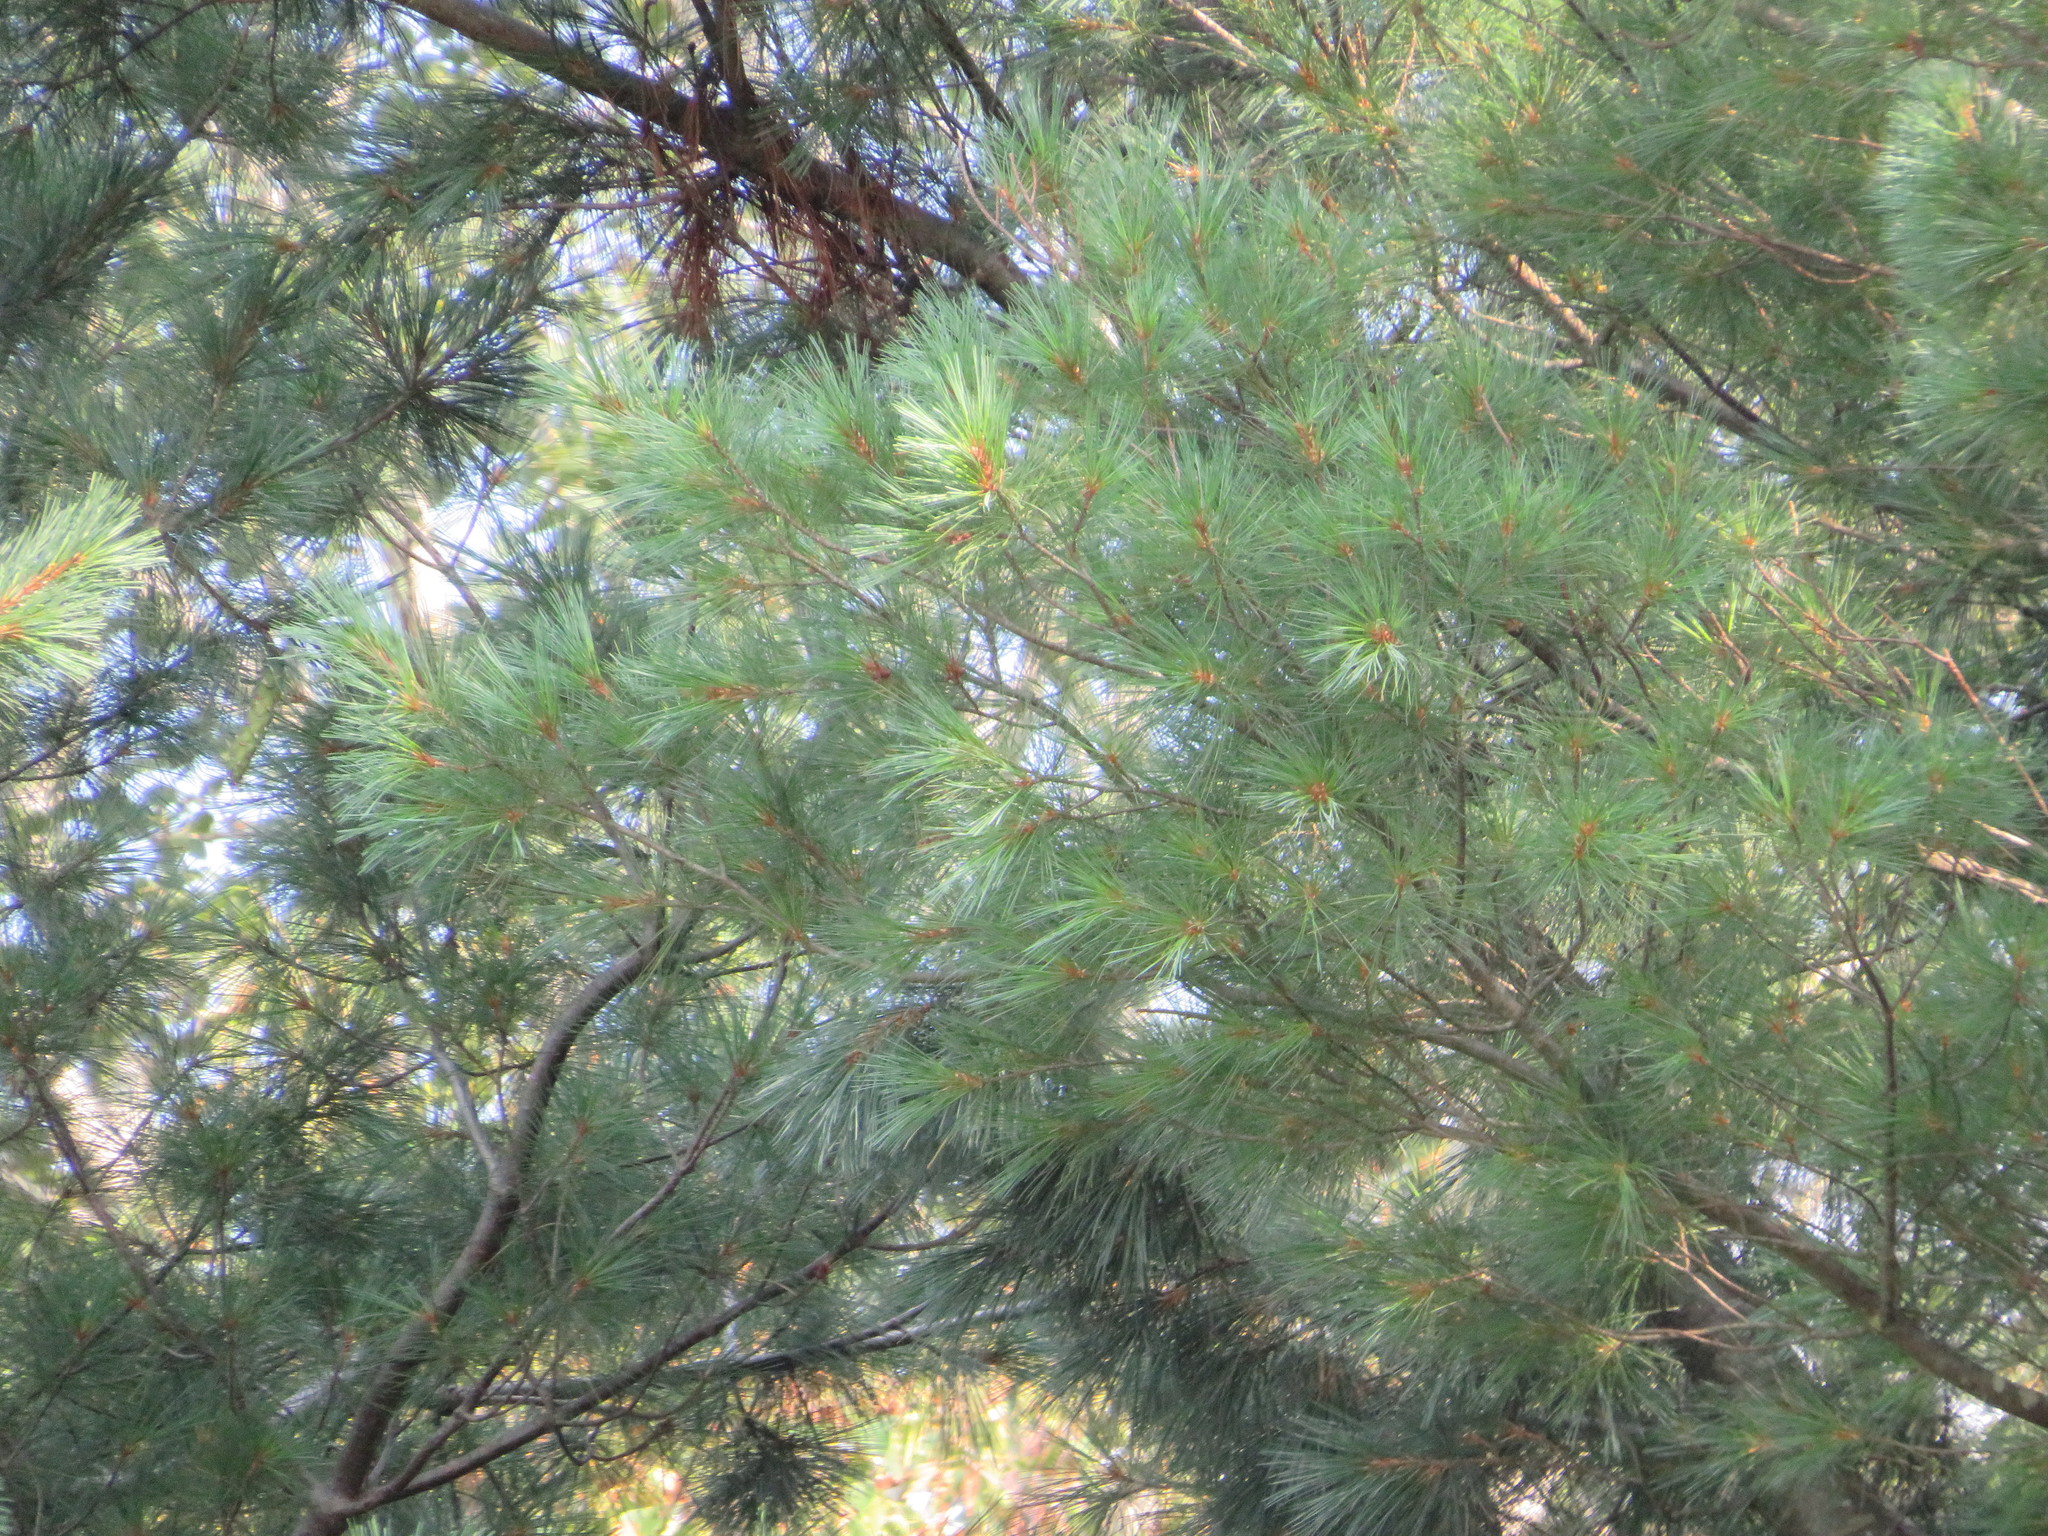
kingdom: Plantae
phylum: Tracheophyta
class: Pinopsida
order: Pinales
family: Pinaceae
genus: Pinus
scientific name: Pinus strobus
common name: Weymouth pine
